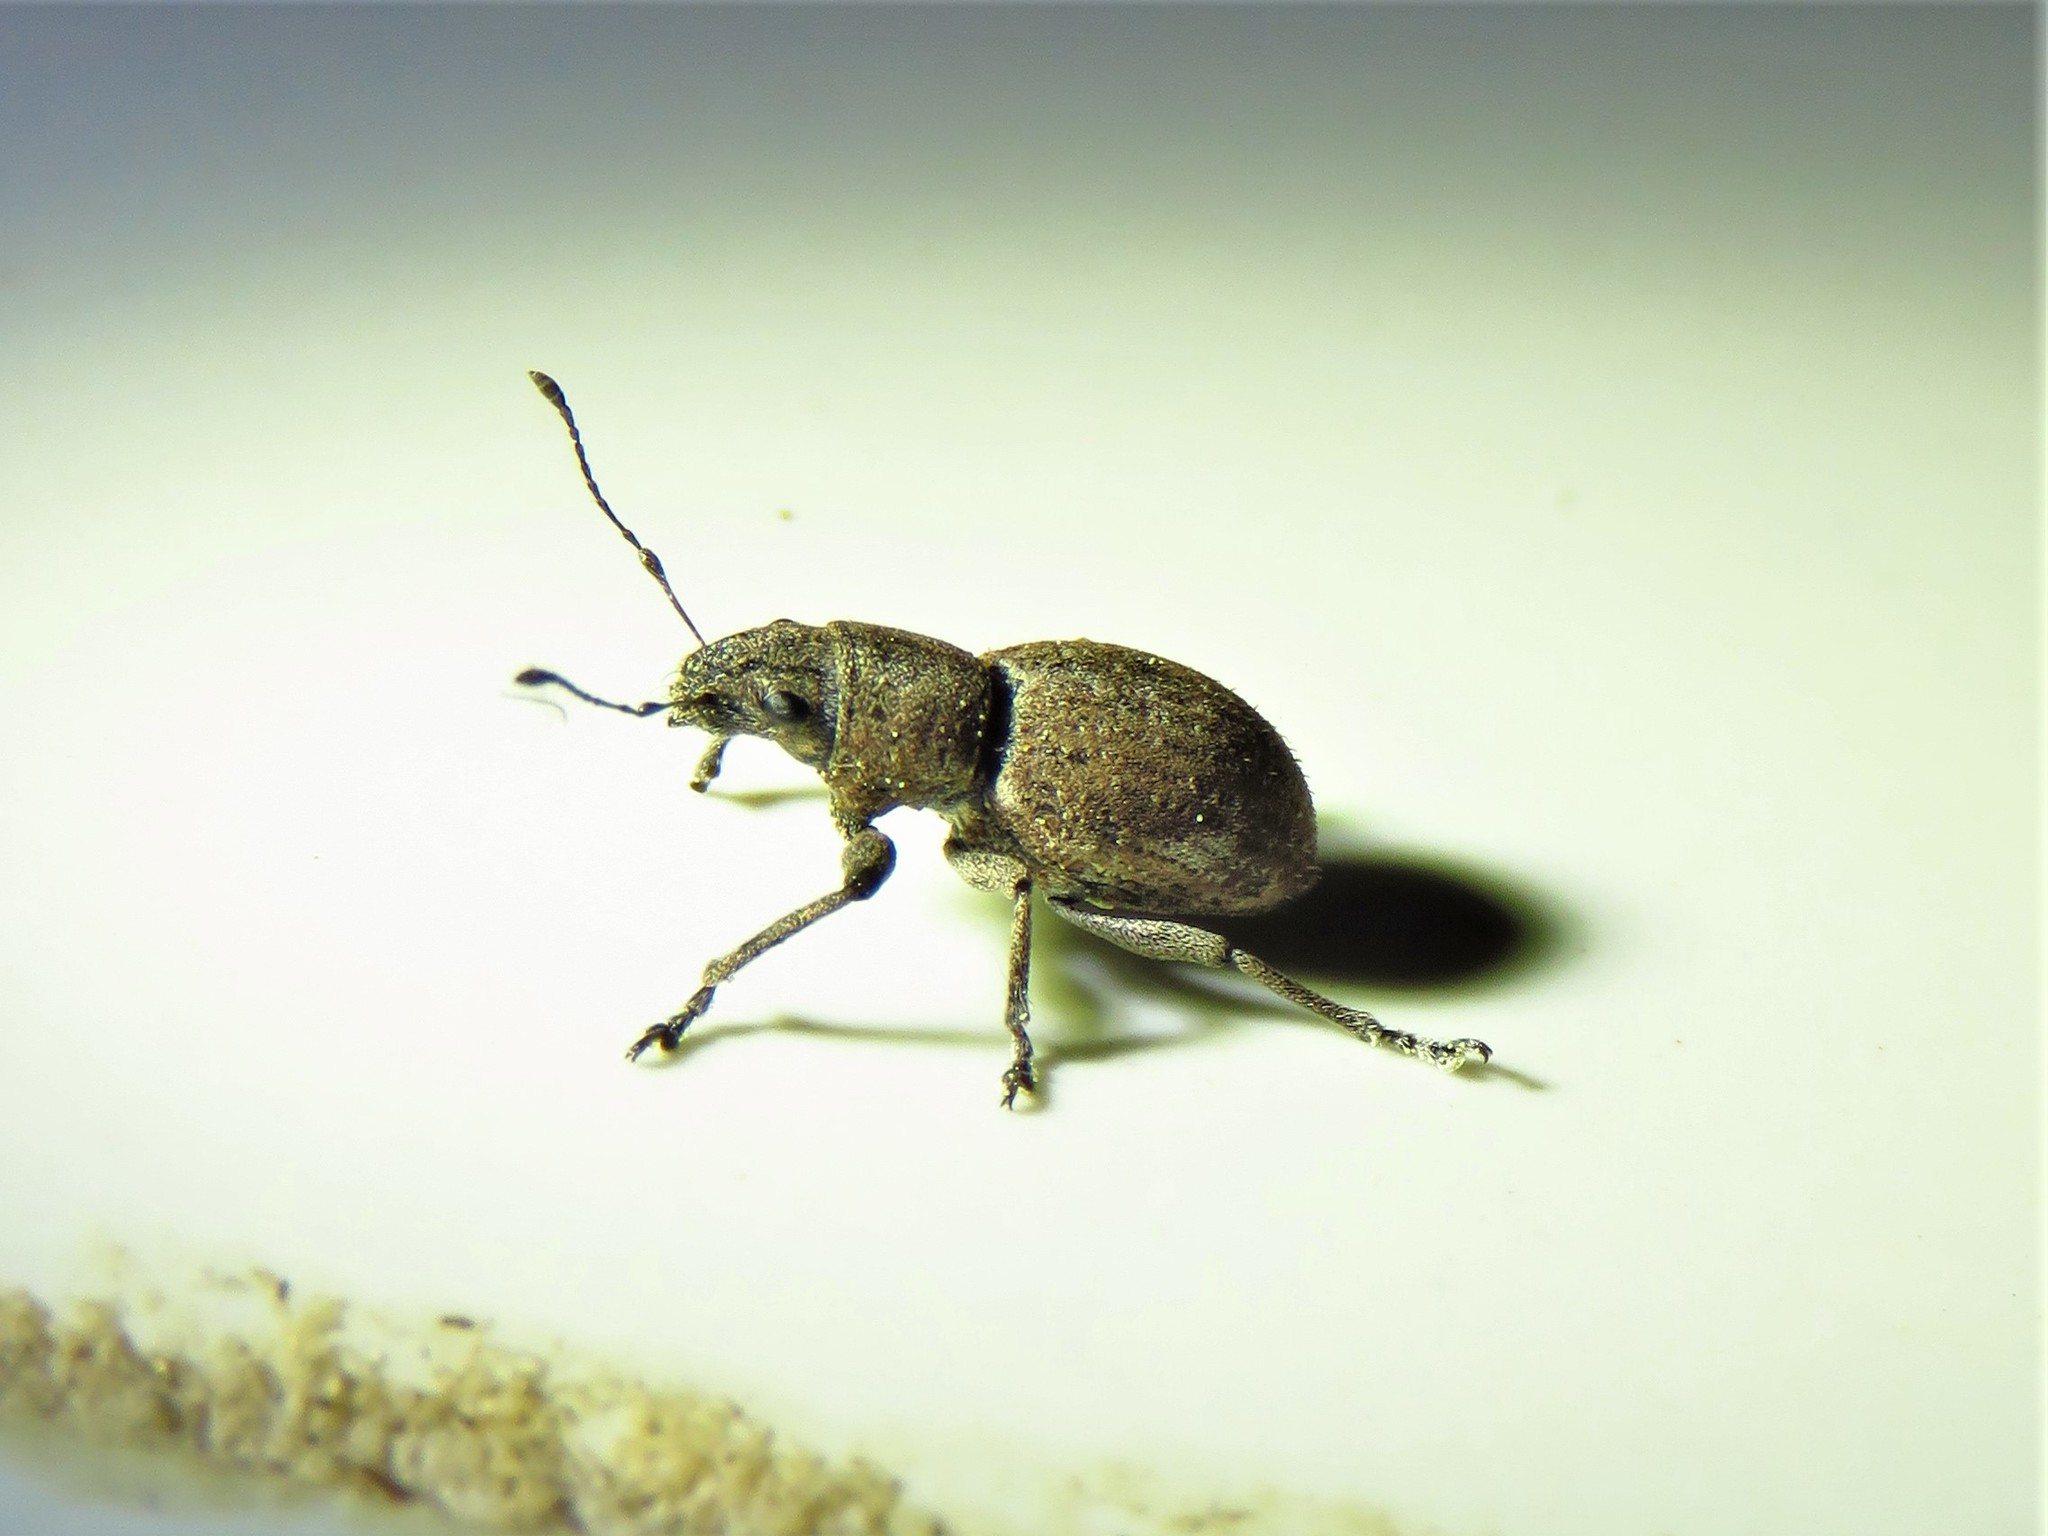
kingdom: Animalia
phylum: Arthropoda
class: Insecta
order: Coleoptera
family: Curculionidae
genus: Naupactus
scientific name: Naupactus cervinus
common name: Fuller rose beetle
